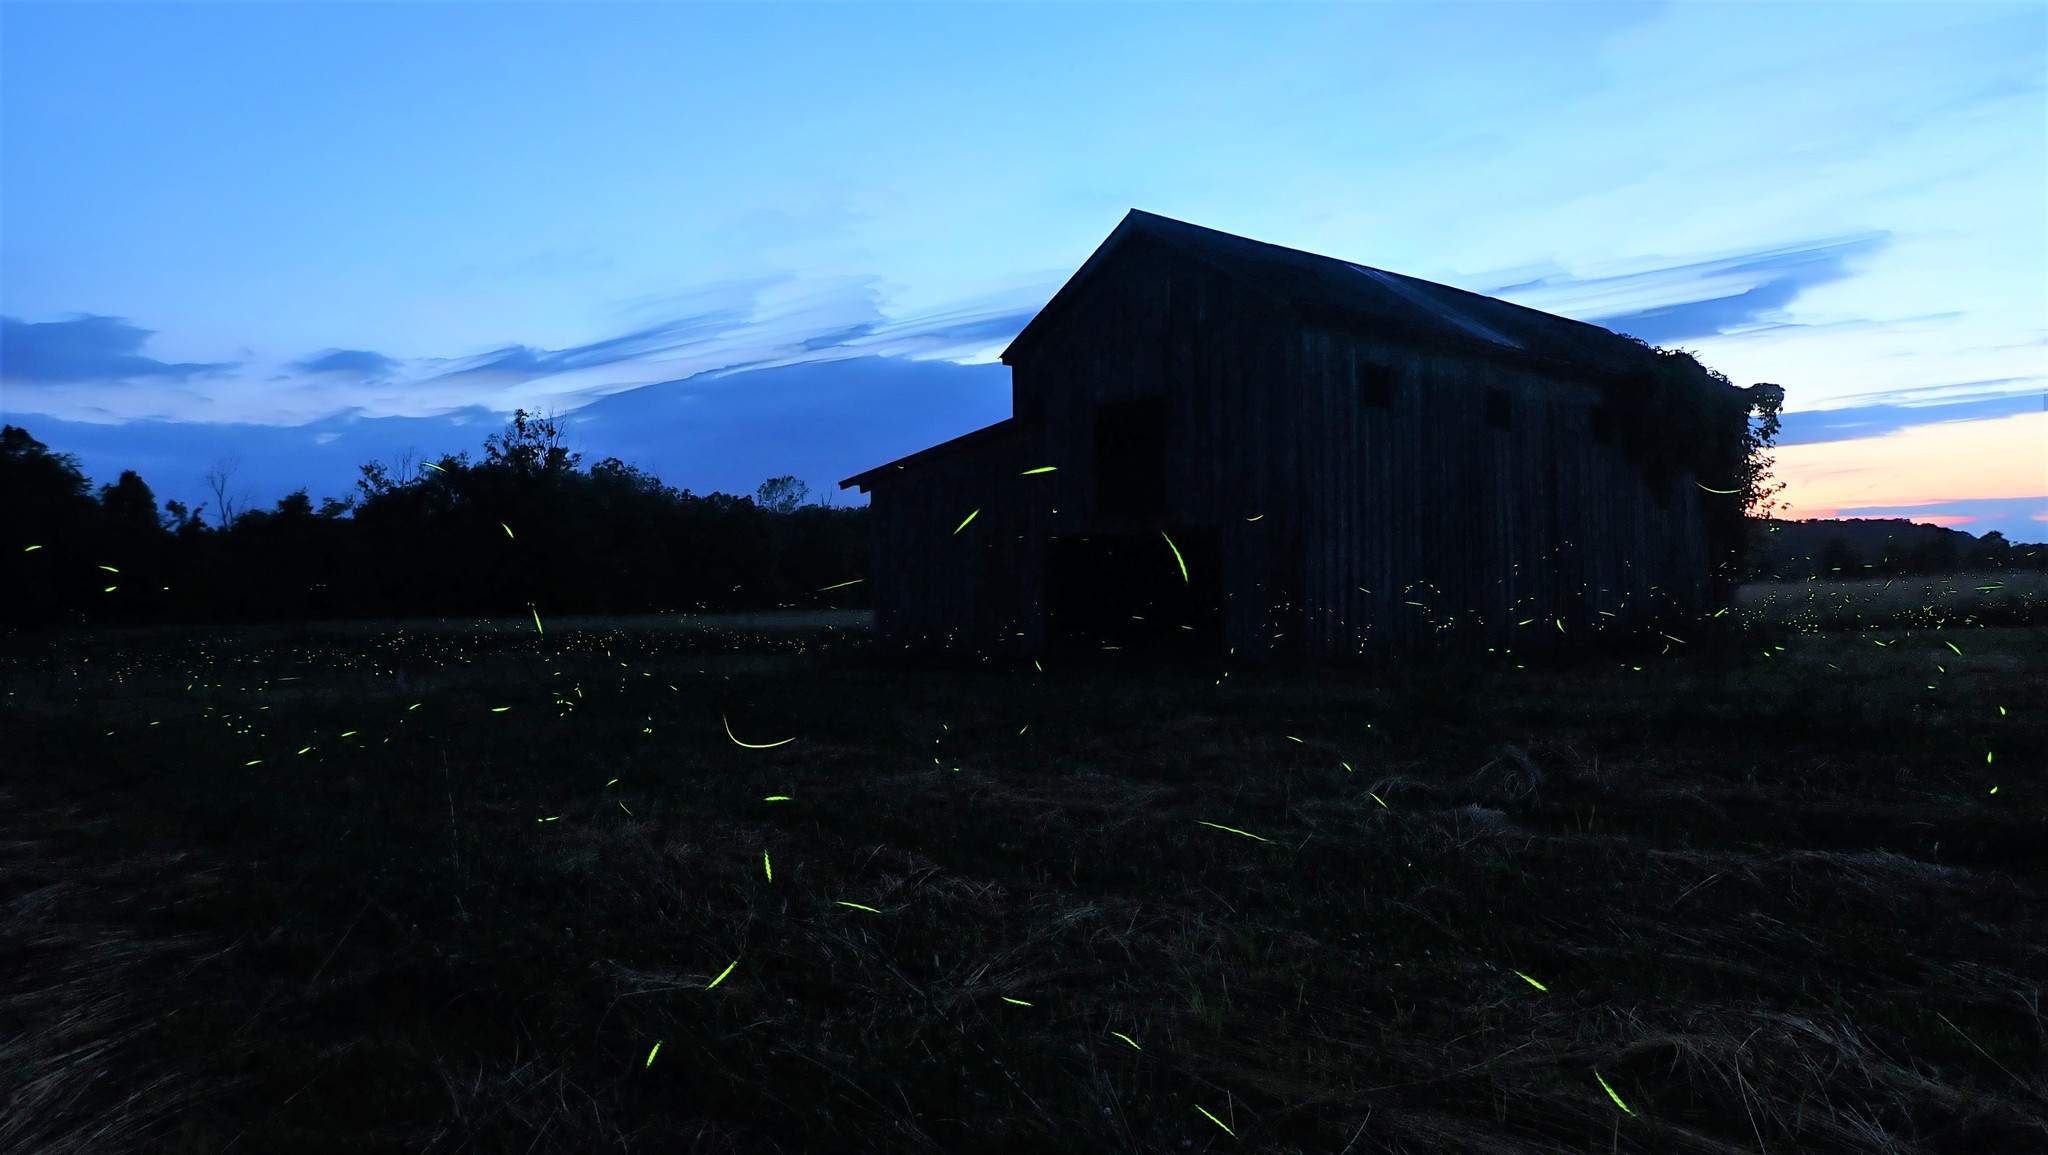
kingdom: Animalia
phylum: Arthropoda
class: Insecta
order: Coleoptera
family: Lampyridae
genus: Photuris
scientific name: Photuris quadrifulgens
